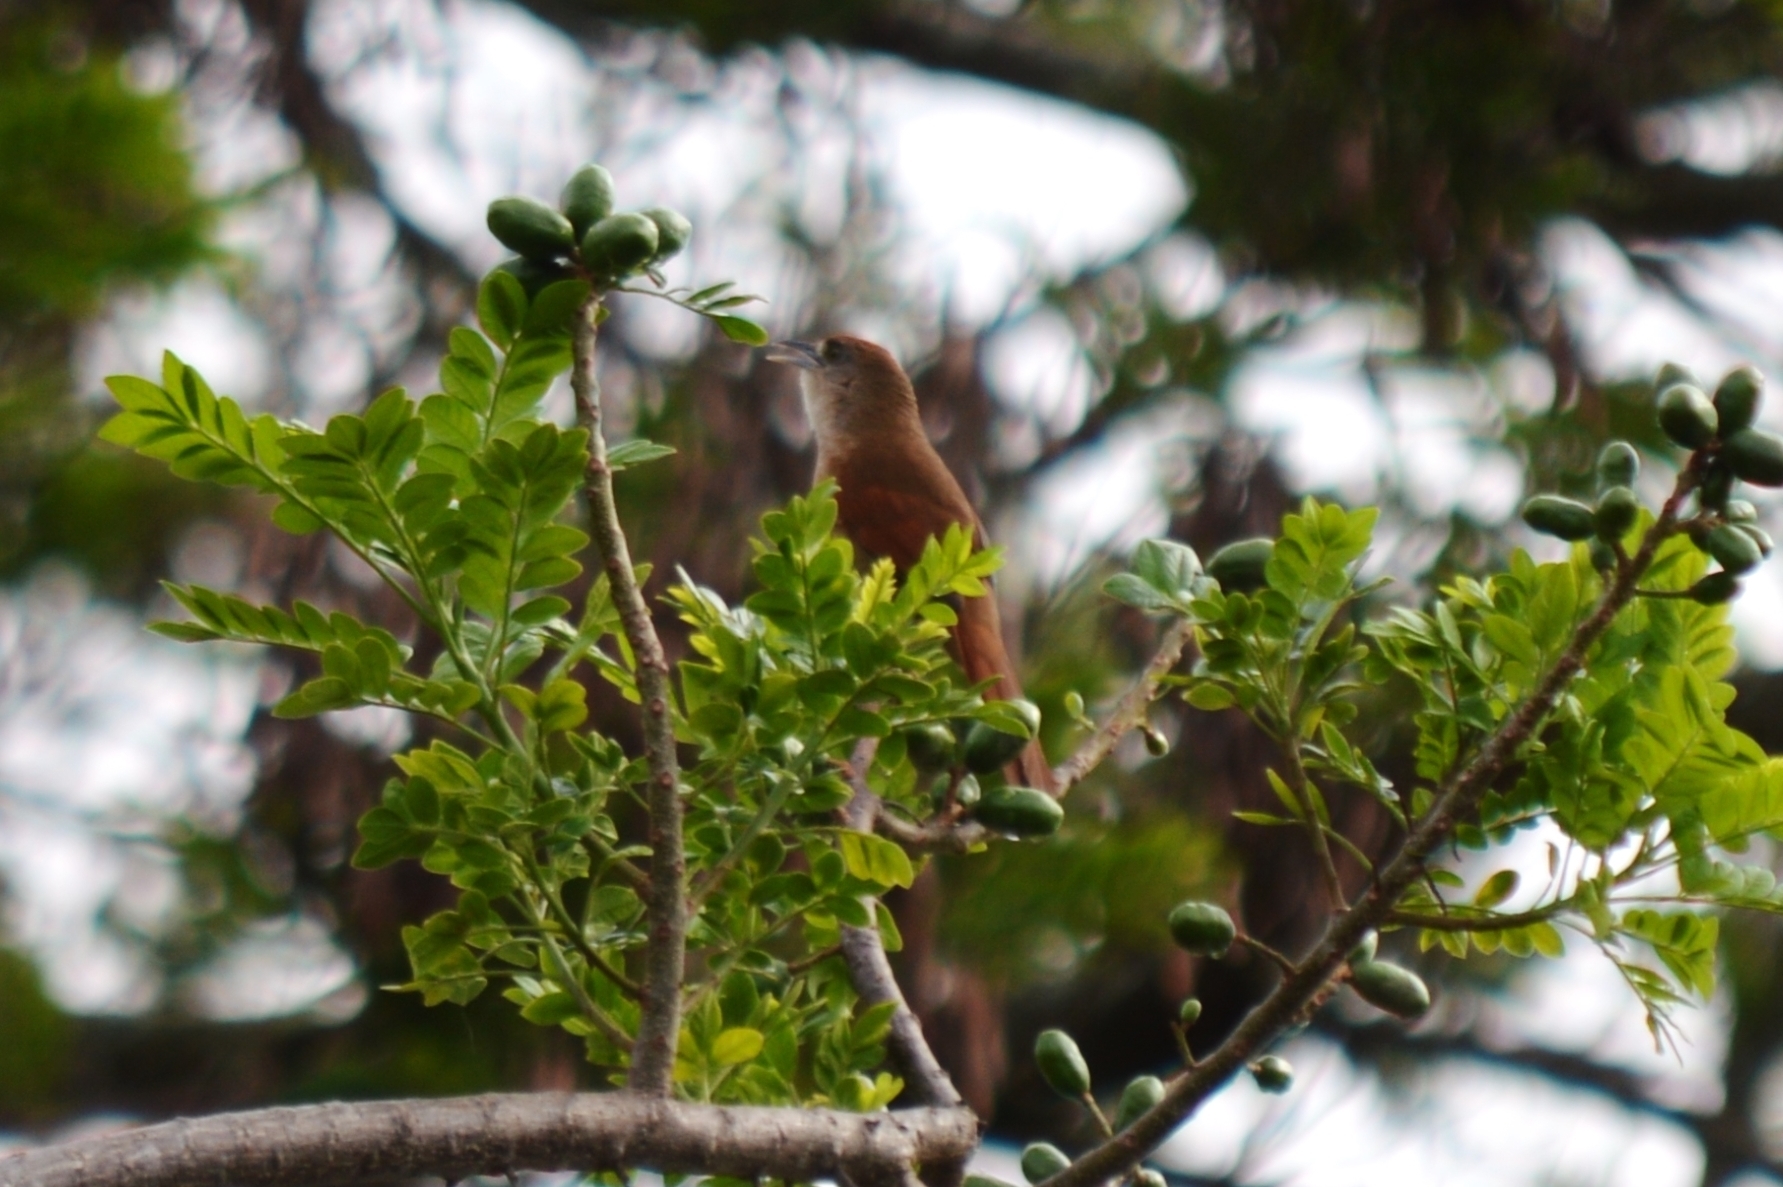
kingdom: Animalia
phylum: Chordata
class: Aves
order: Cuculiformes
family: Cuculidae
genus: Piaya
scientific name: Piaya cayana
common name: Squirrel cuckoo
